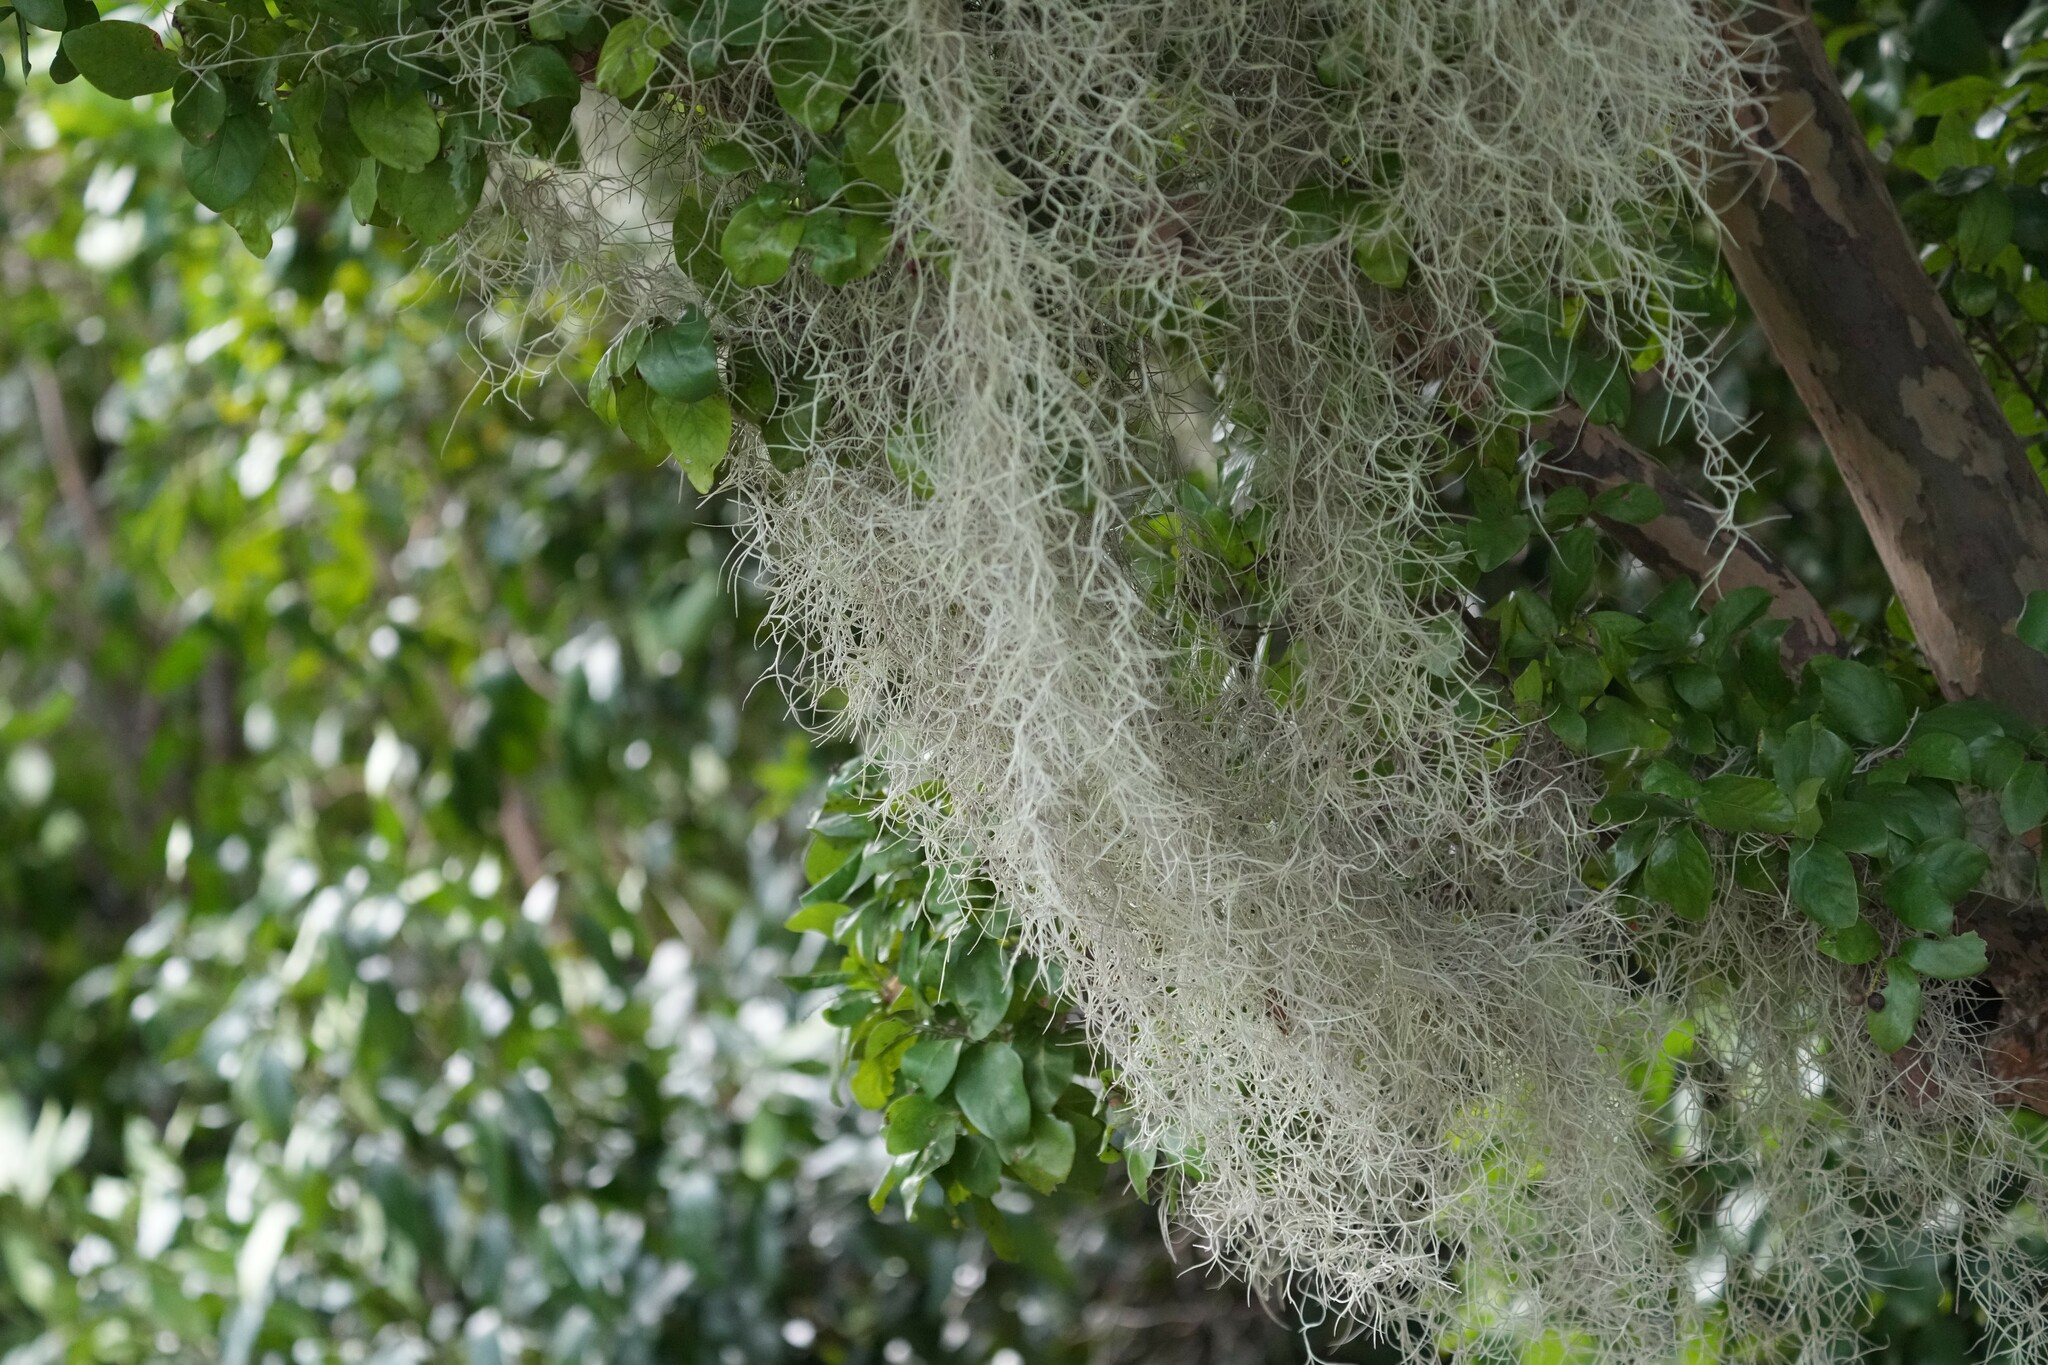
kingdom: Plantae
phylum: Tracheophyta
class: Liliopsida
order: Poales
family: Bromeliaceae
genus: Tillandsia
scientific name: Tillandsia usneoides
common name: Spanish moss
